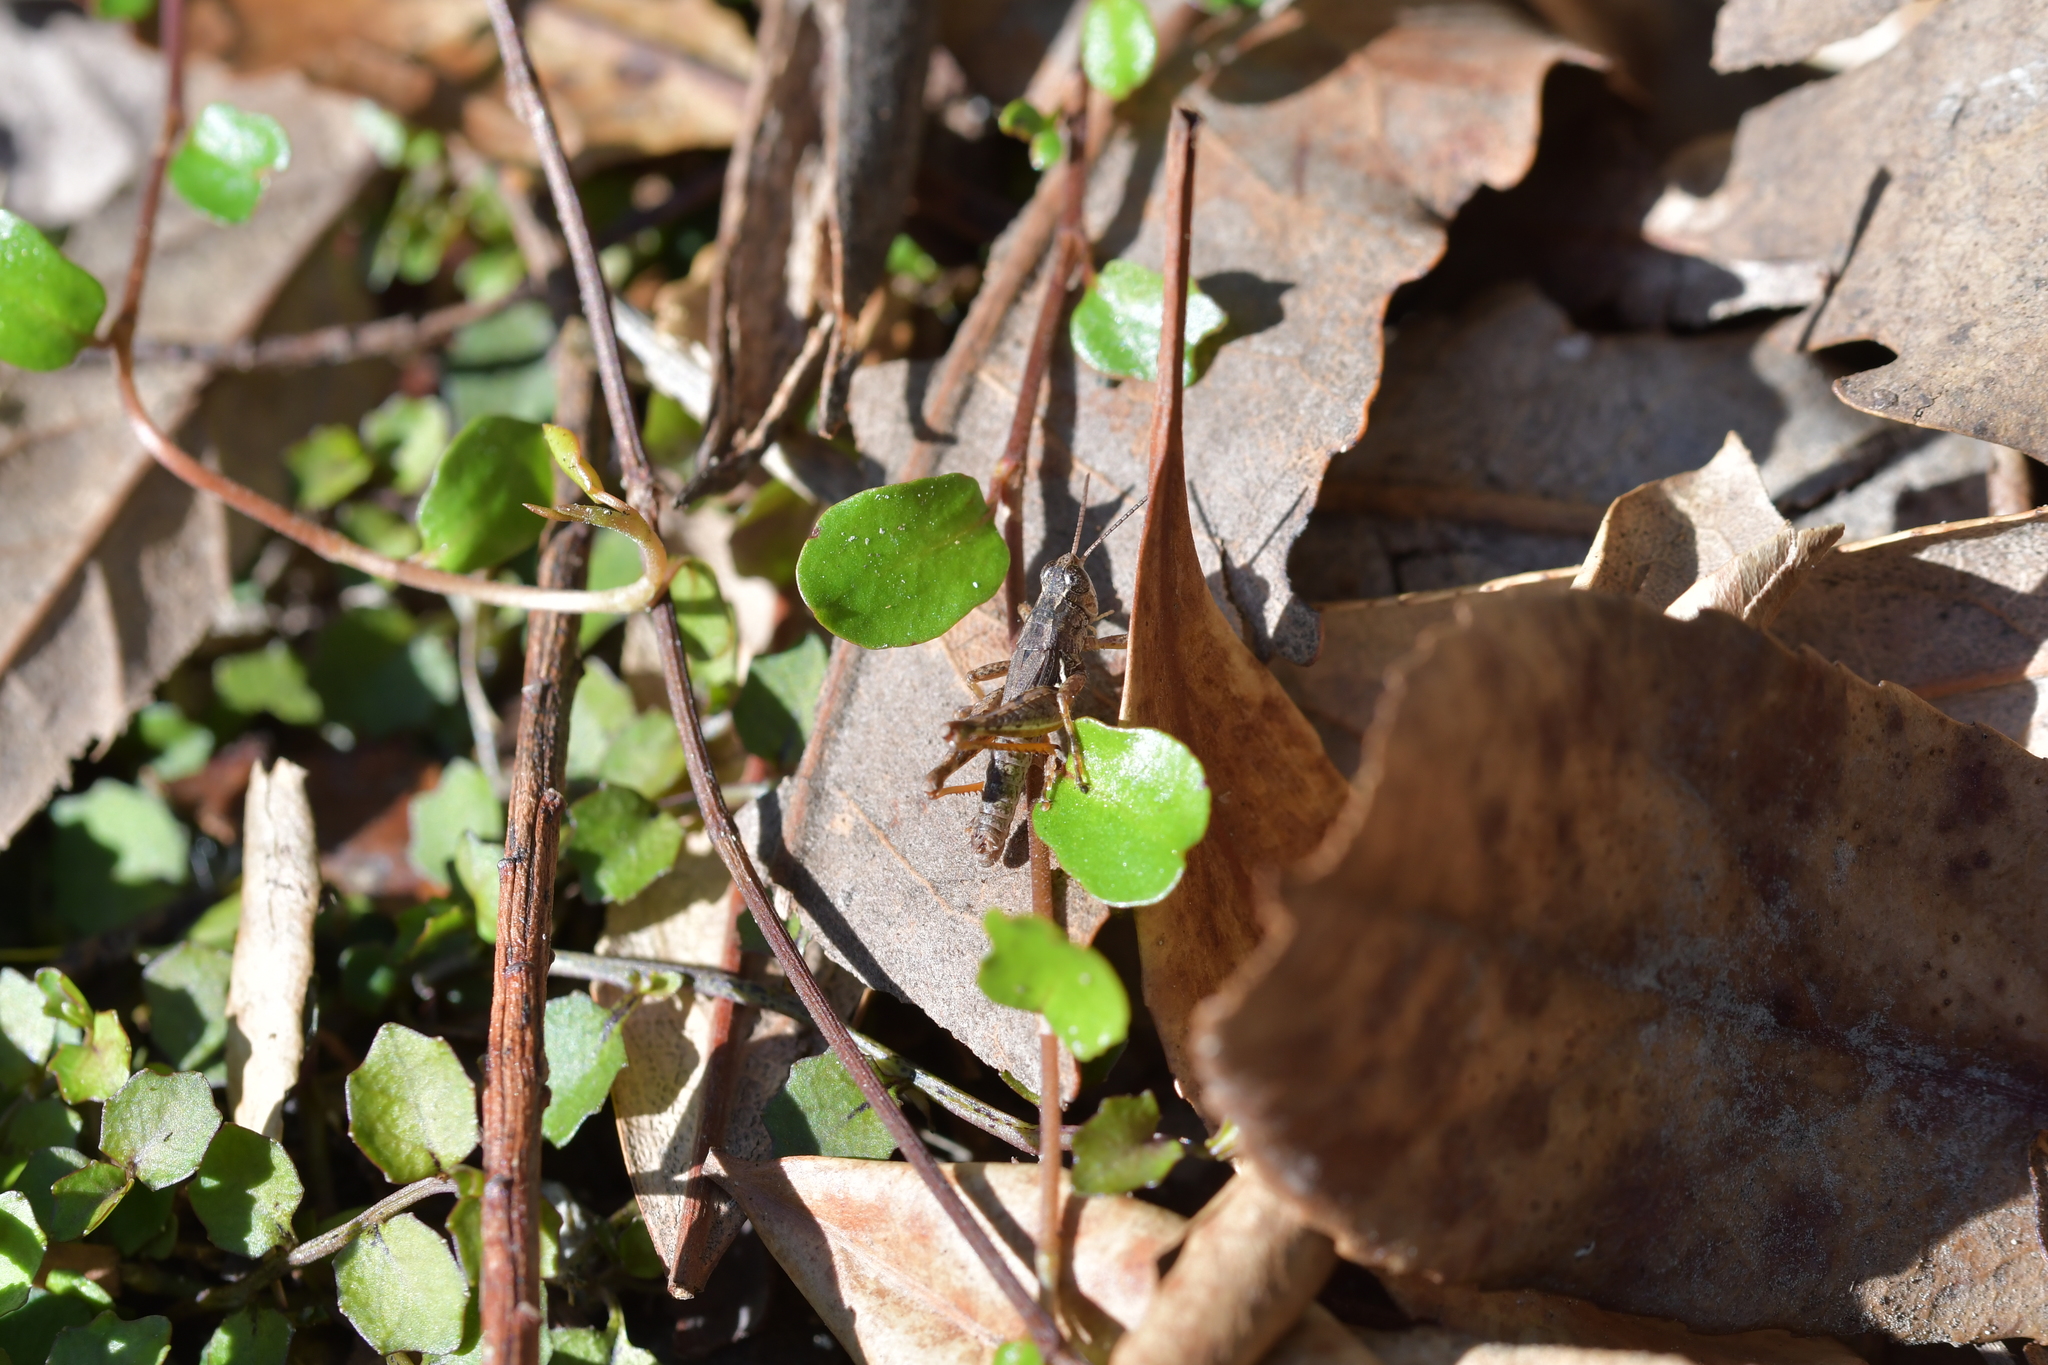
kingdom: Animalia
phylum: Arthropoda
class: Insecta
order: Orthoptera
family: Acrididae
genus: Phaulacridium
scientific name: Phaulacridium marginale
